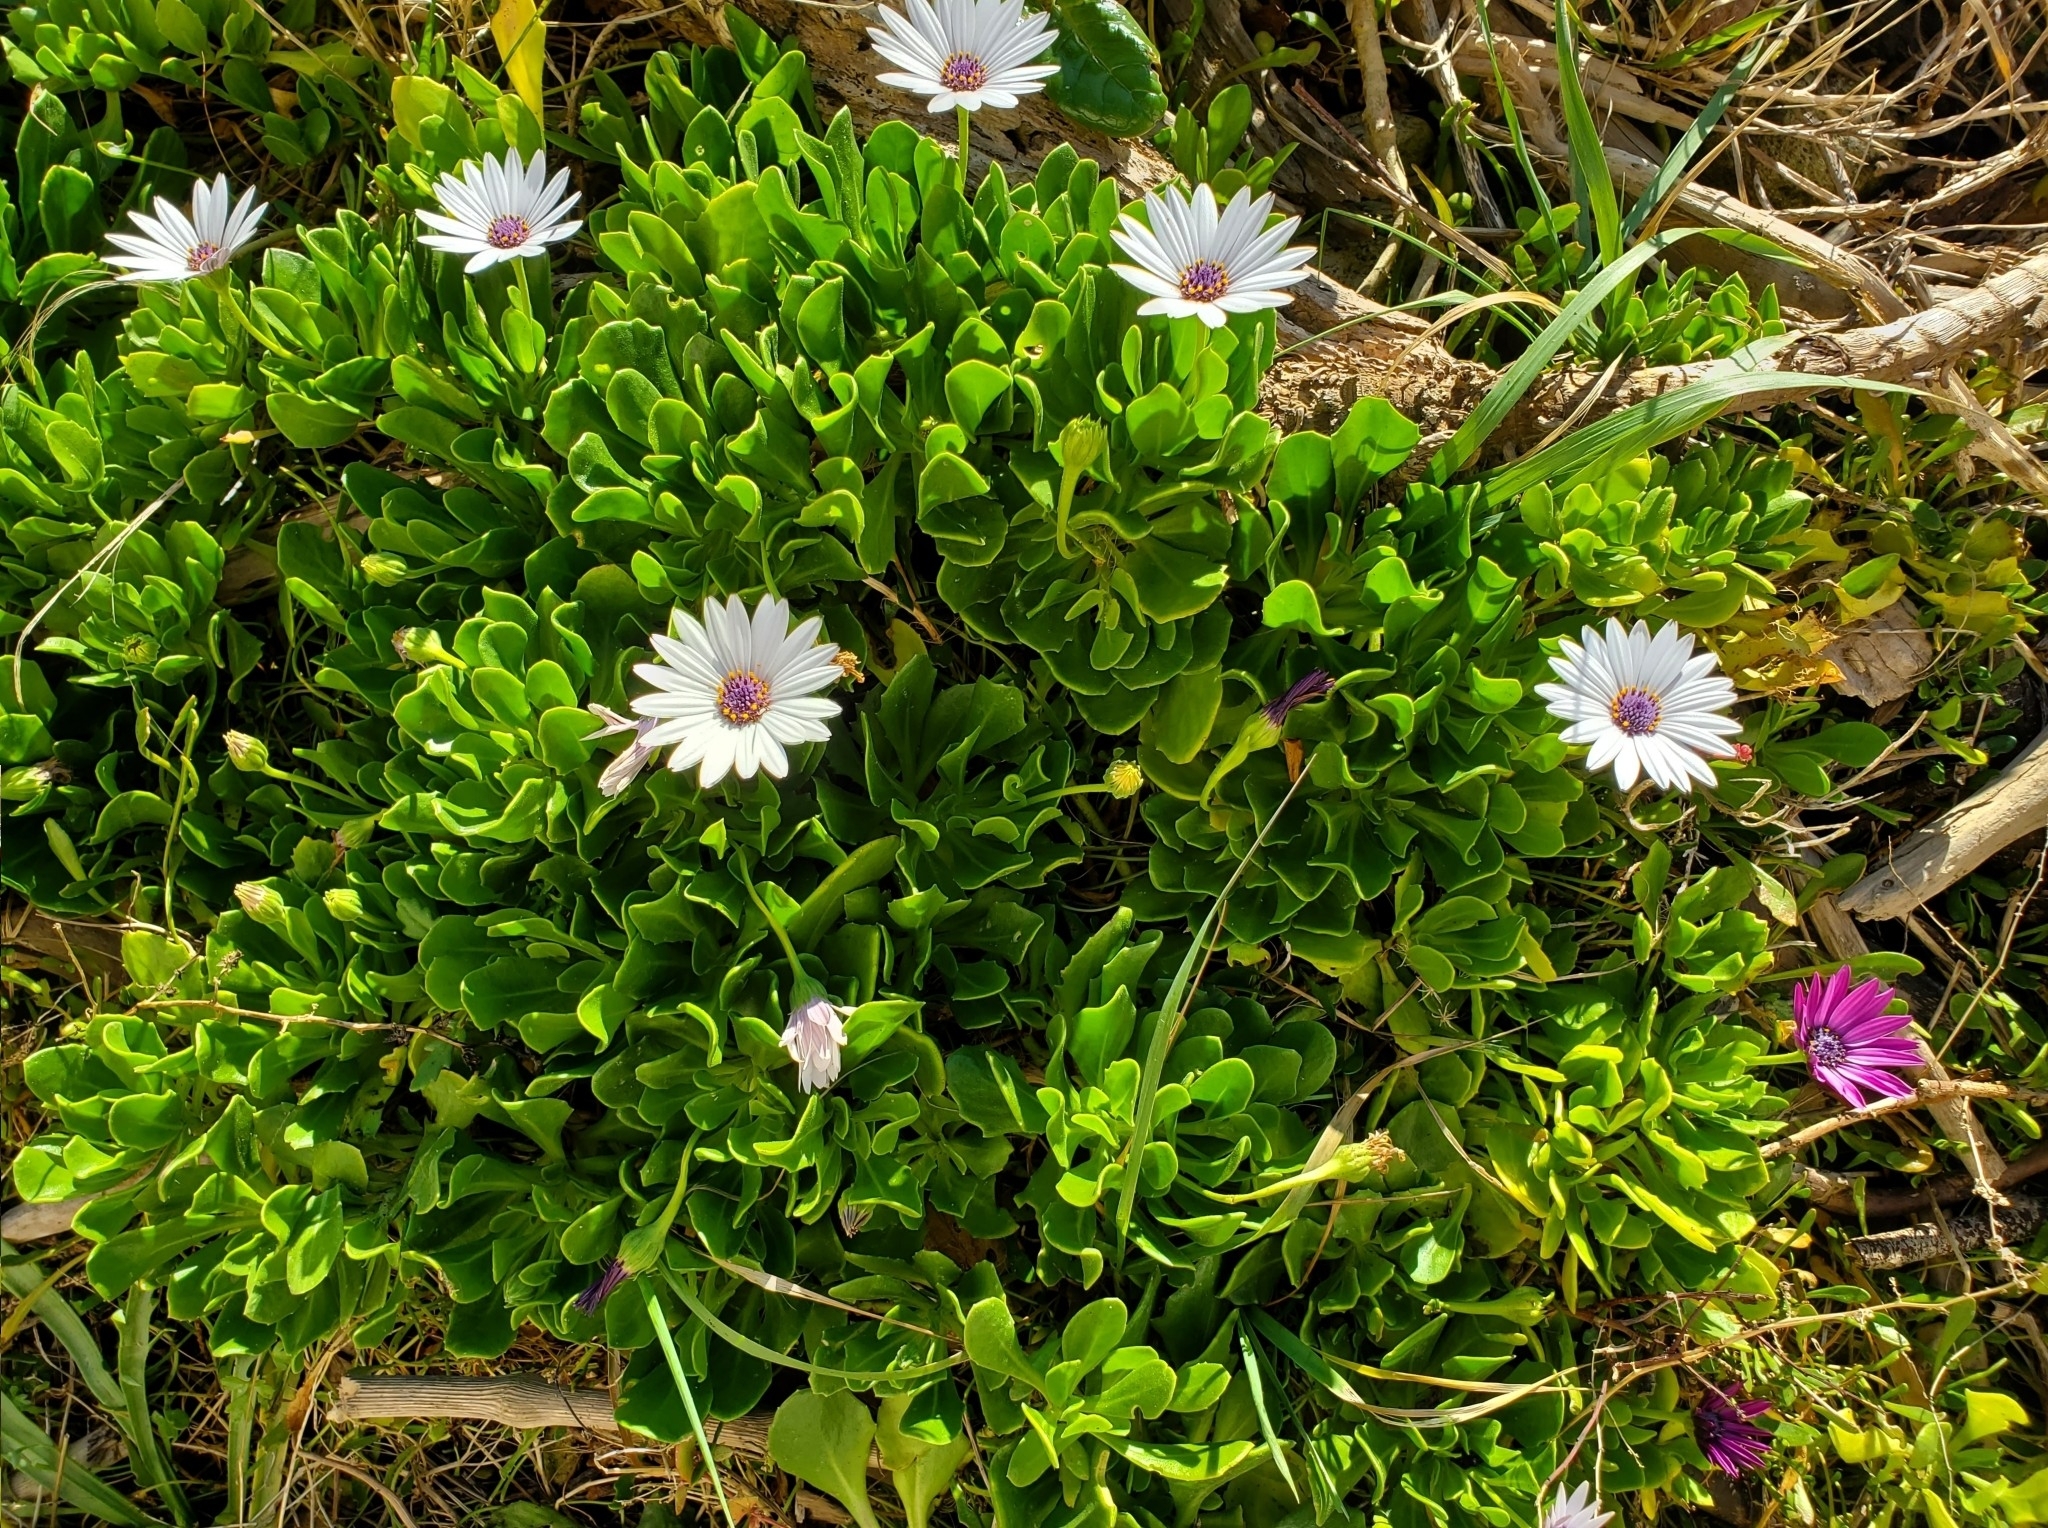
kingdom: Plantae
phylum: Tracheophyta
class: Magnoliopsida
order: Asterales
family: Asteraceae
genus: Dimorphotheca
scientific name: Dimorphotheca fruticosa
